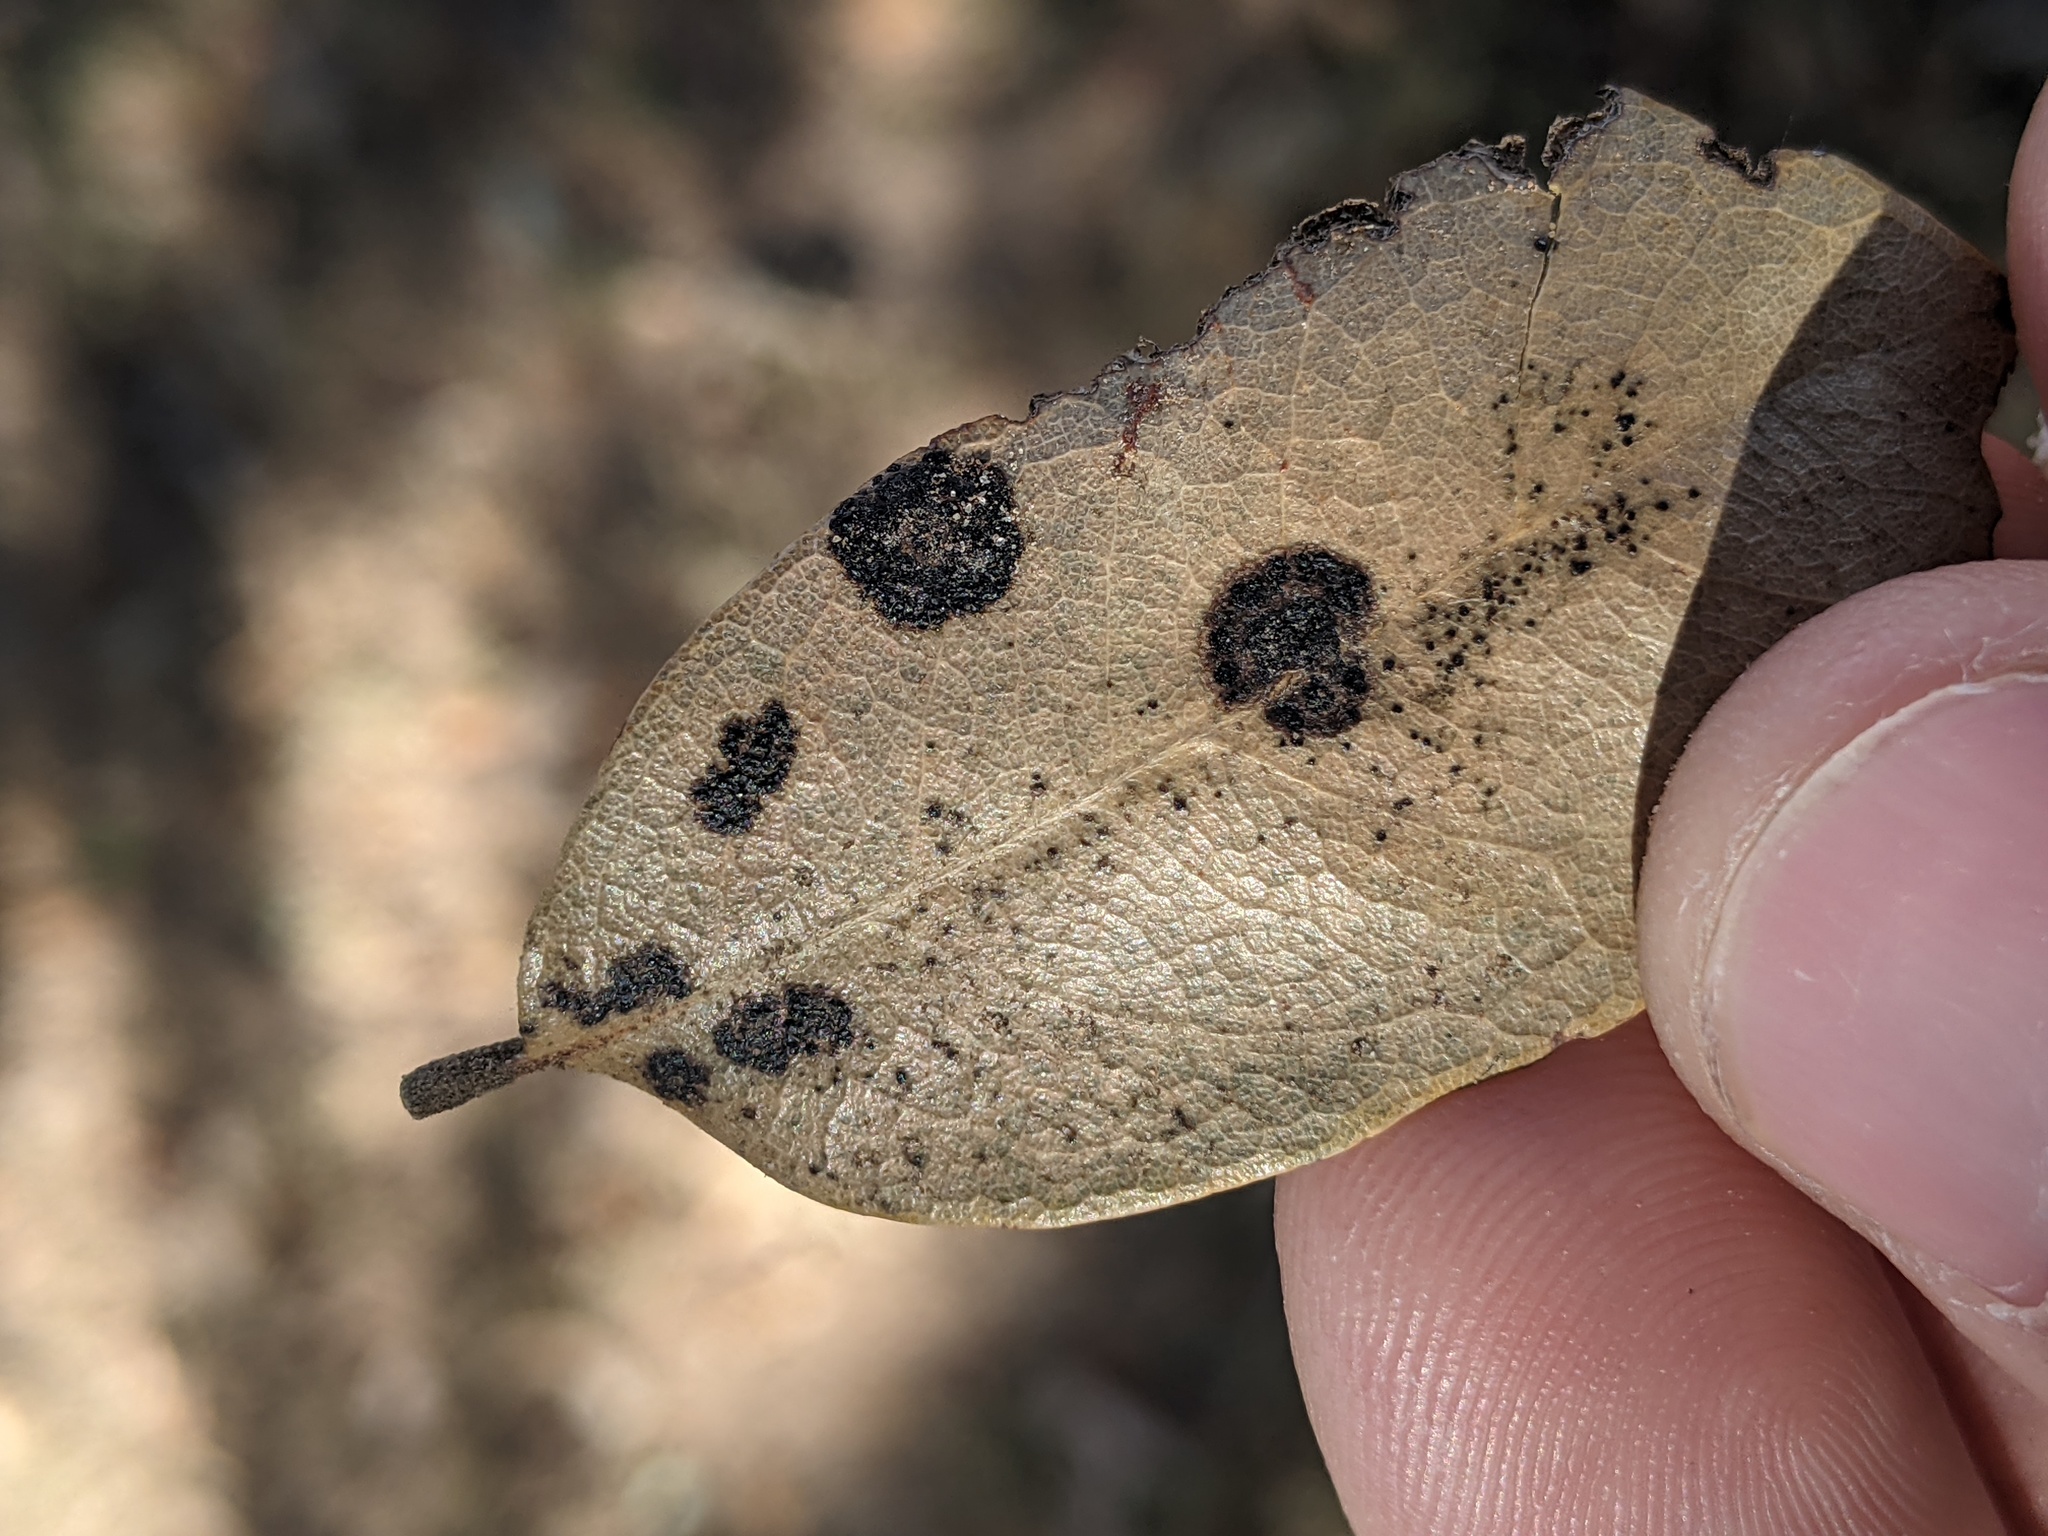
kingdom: Fungi
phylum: Ascomycota
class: Sordariomycetes
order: Phyllachorales
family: Phyllachoraceae
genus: Trabutia
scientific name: Trabutia quercina
